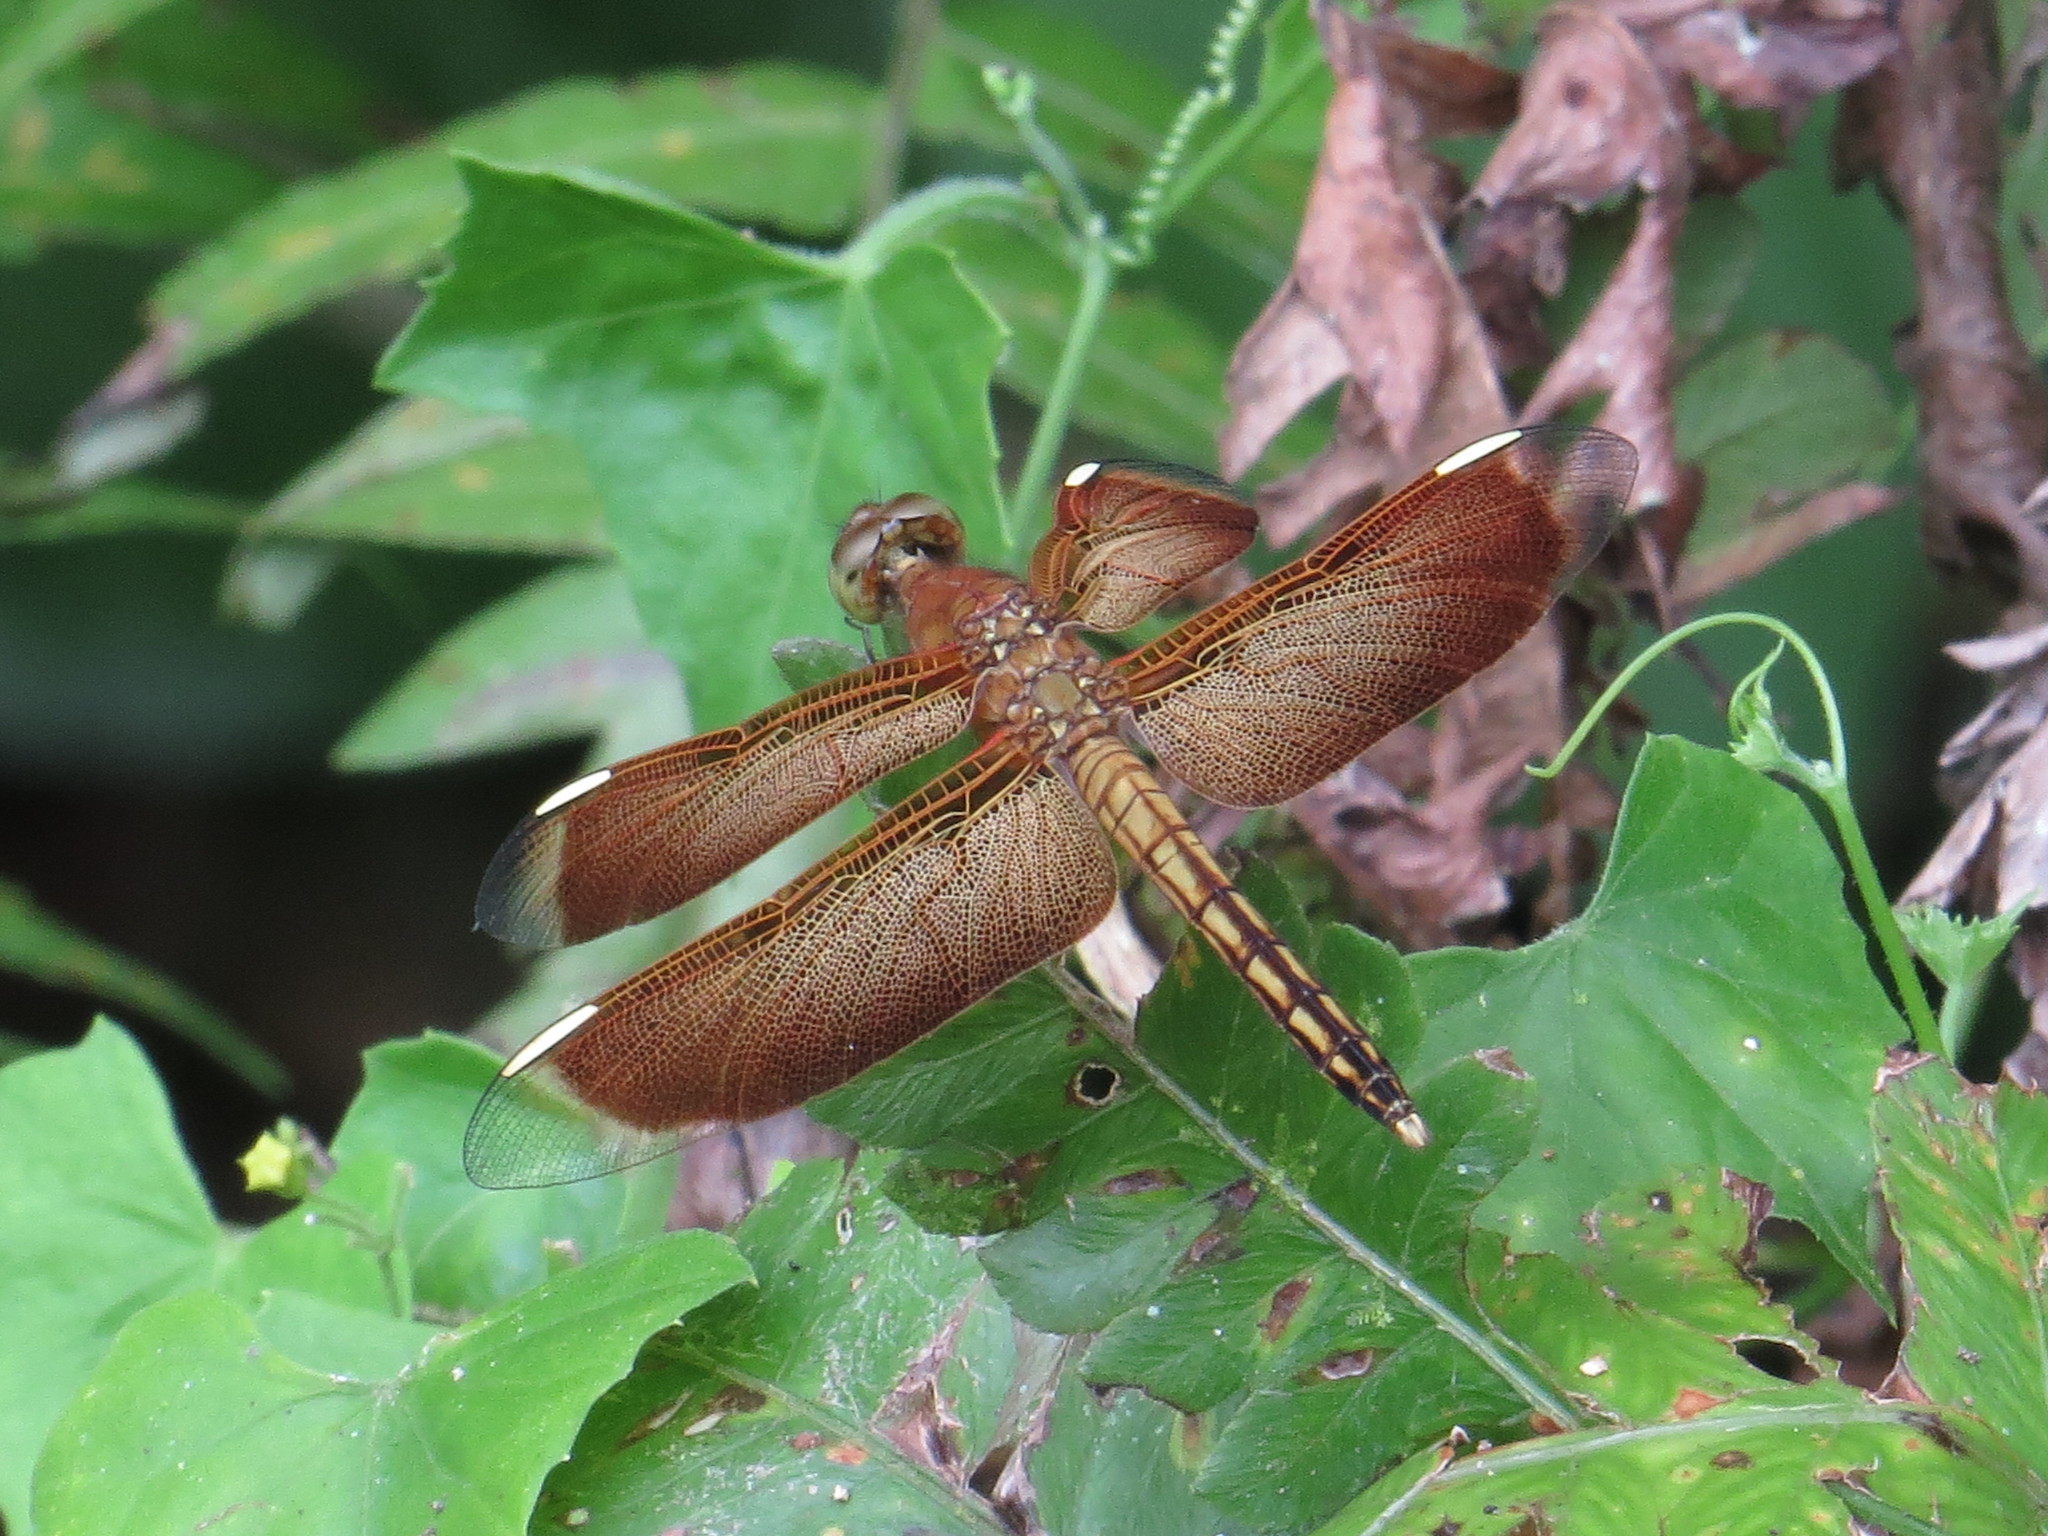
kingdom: Animalia
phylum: Arthropoda
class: Insecta
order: Odonata
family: Libellulidae
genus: Neurothemis
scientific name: Neurothemis stigmatizans
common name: Painted grasshawk
